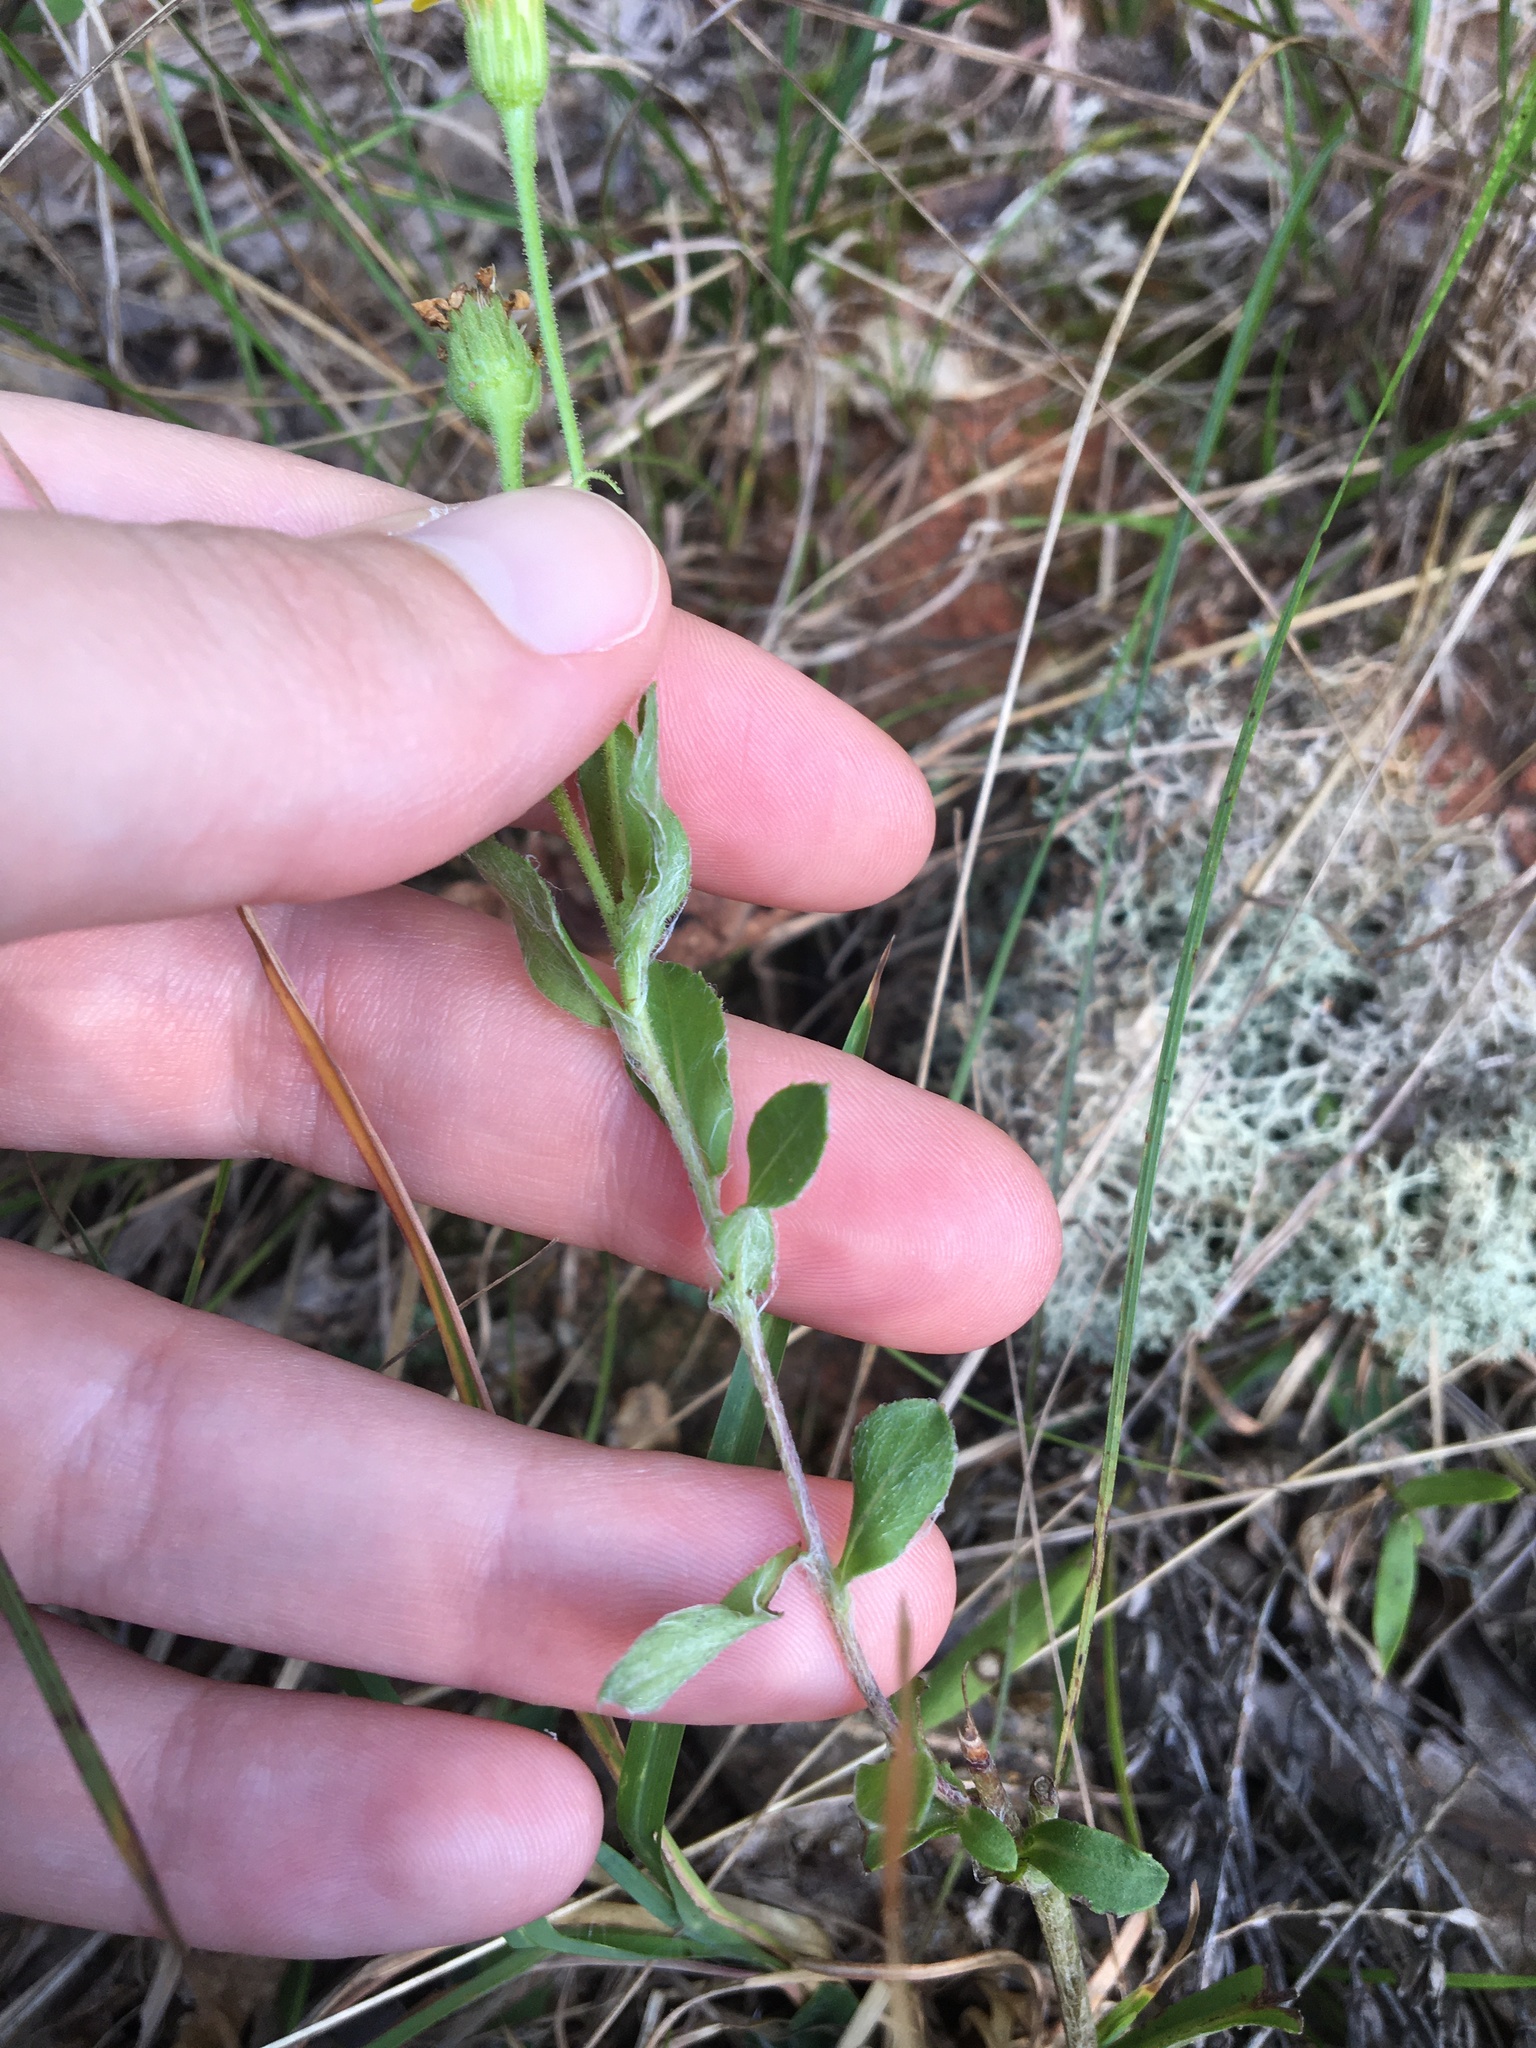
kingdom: Plantae
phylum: Tracheophyta
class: Magnoliopsida
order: Asterales
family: Asteraceae
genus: Chrysopsis
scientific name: Chrysopsis mariana
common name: Maryland golden-aster
